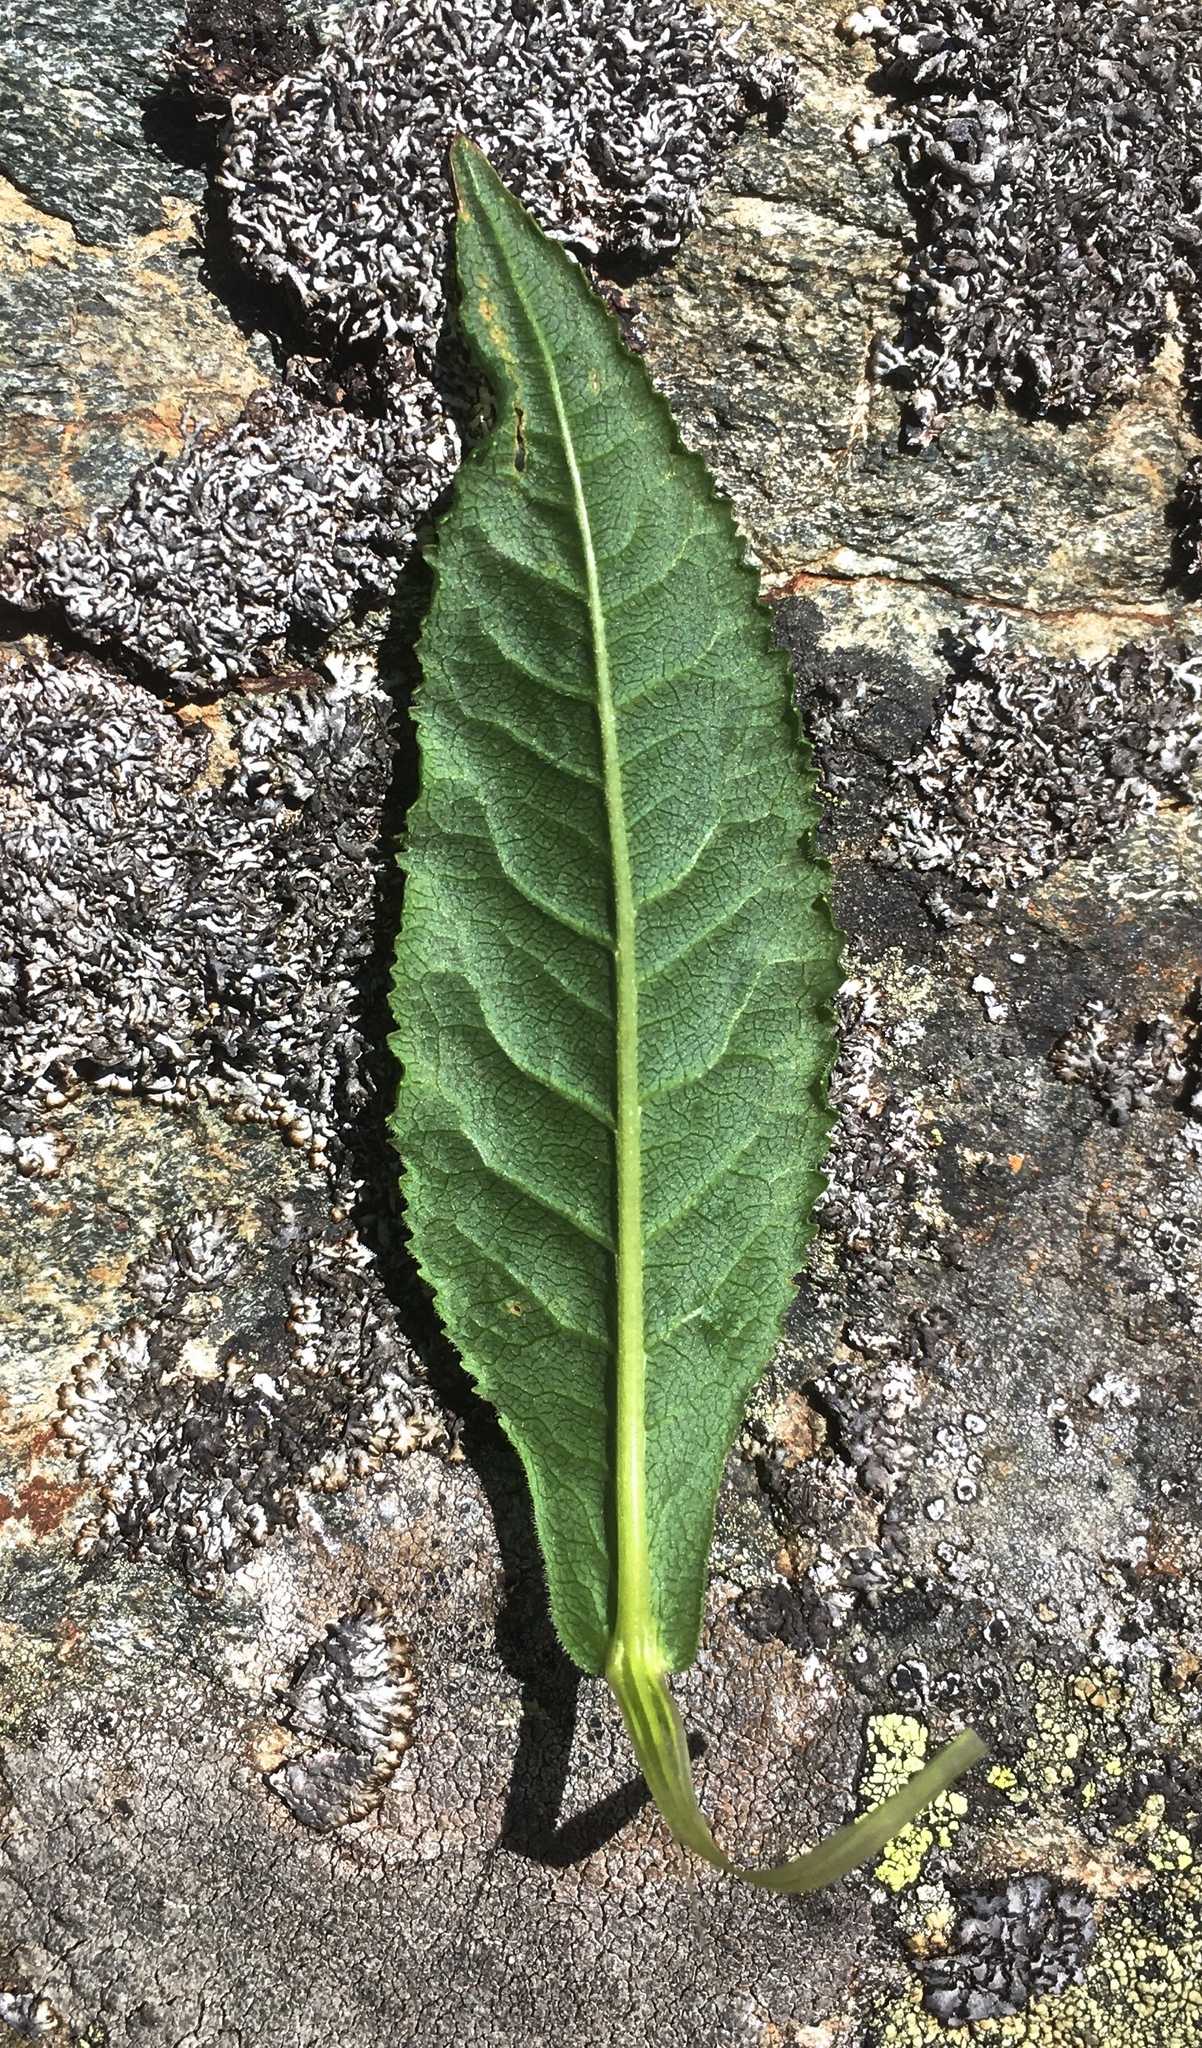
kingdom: Plantae
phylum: Tracheophyta
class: Magnoliopsida
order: Asterales
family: Asteraceae
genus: Senecio
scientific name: Senecio hercynicus
